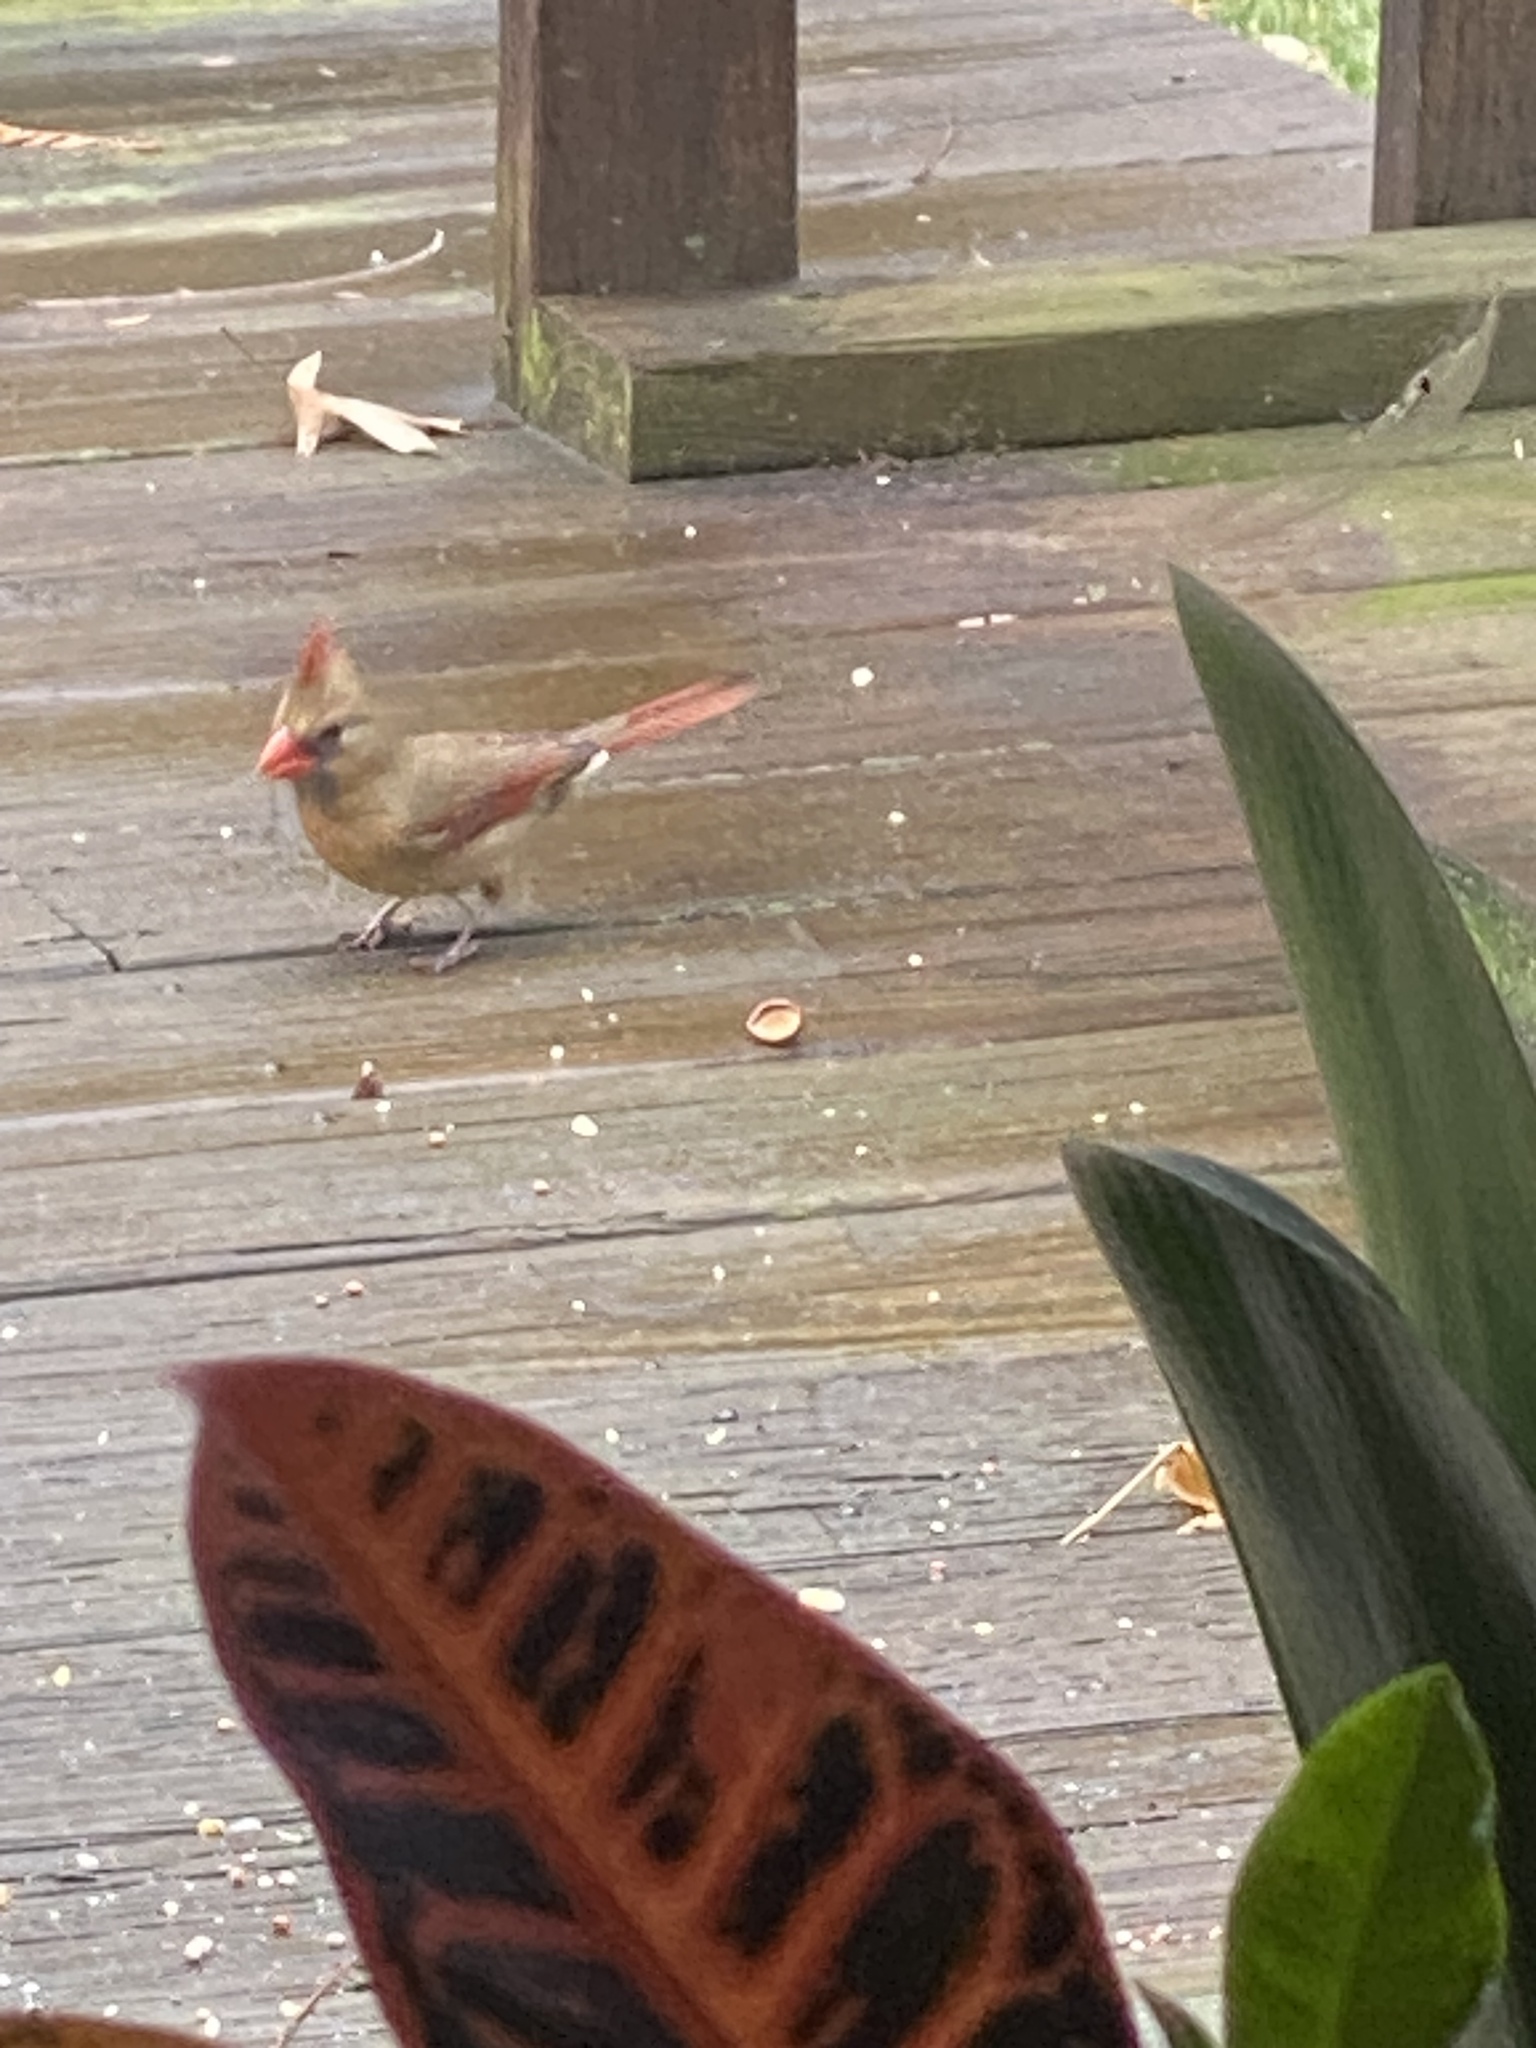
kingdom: Animalia
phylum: Chordata
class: Aves
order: Passeriformes
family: Cardinalidae
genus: Cardinalis
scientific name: Cardinalis cardinalis
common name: Northern cardinal
